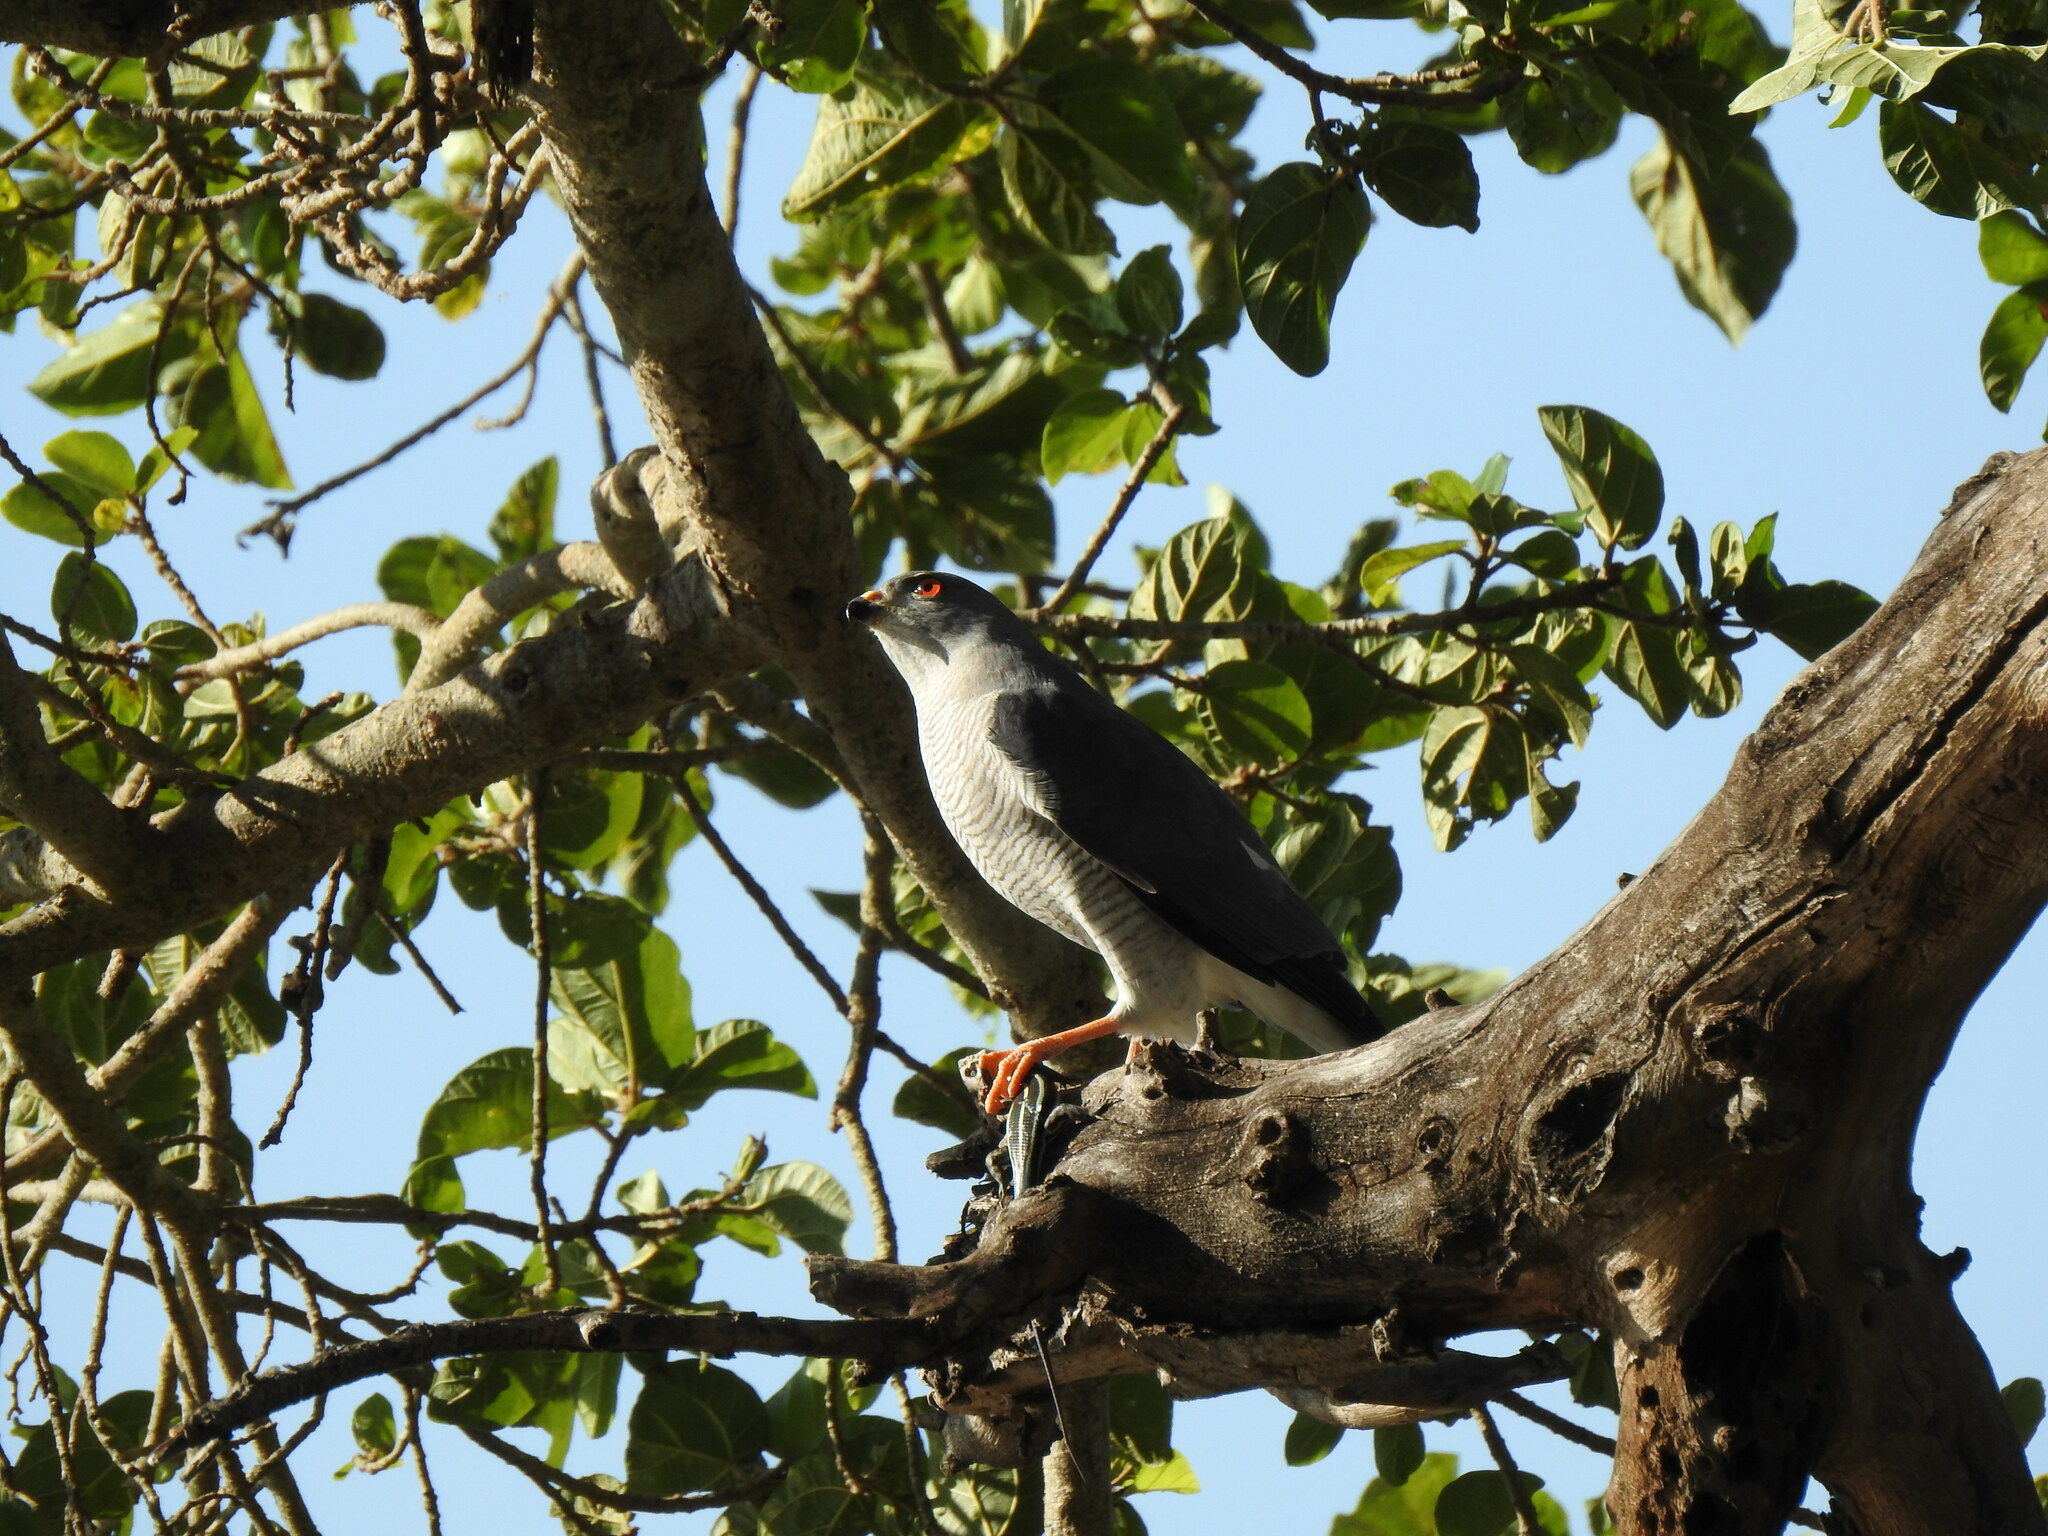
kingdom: Animalia
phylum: Chordata
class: Aves
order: Accipitriformes
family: Accipitridae
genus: Accipiter
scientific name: Accipiter badius
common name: Shikra
